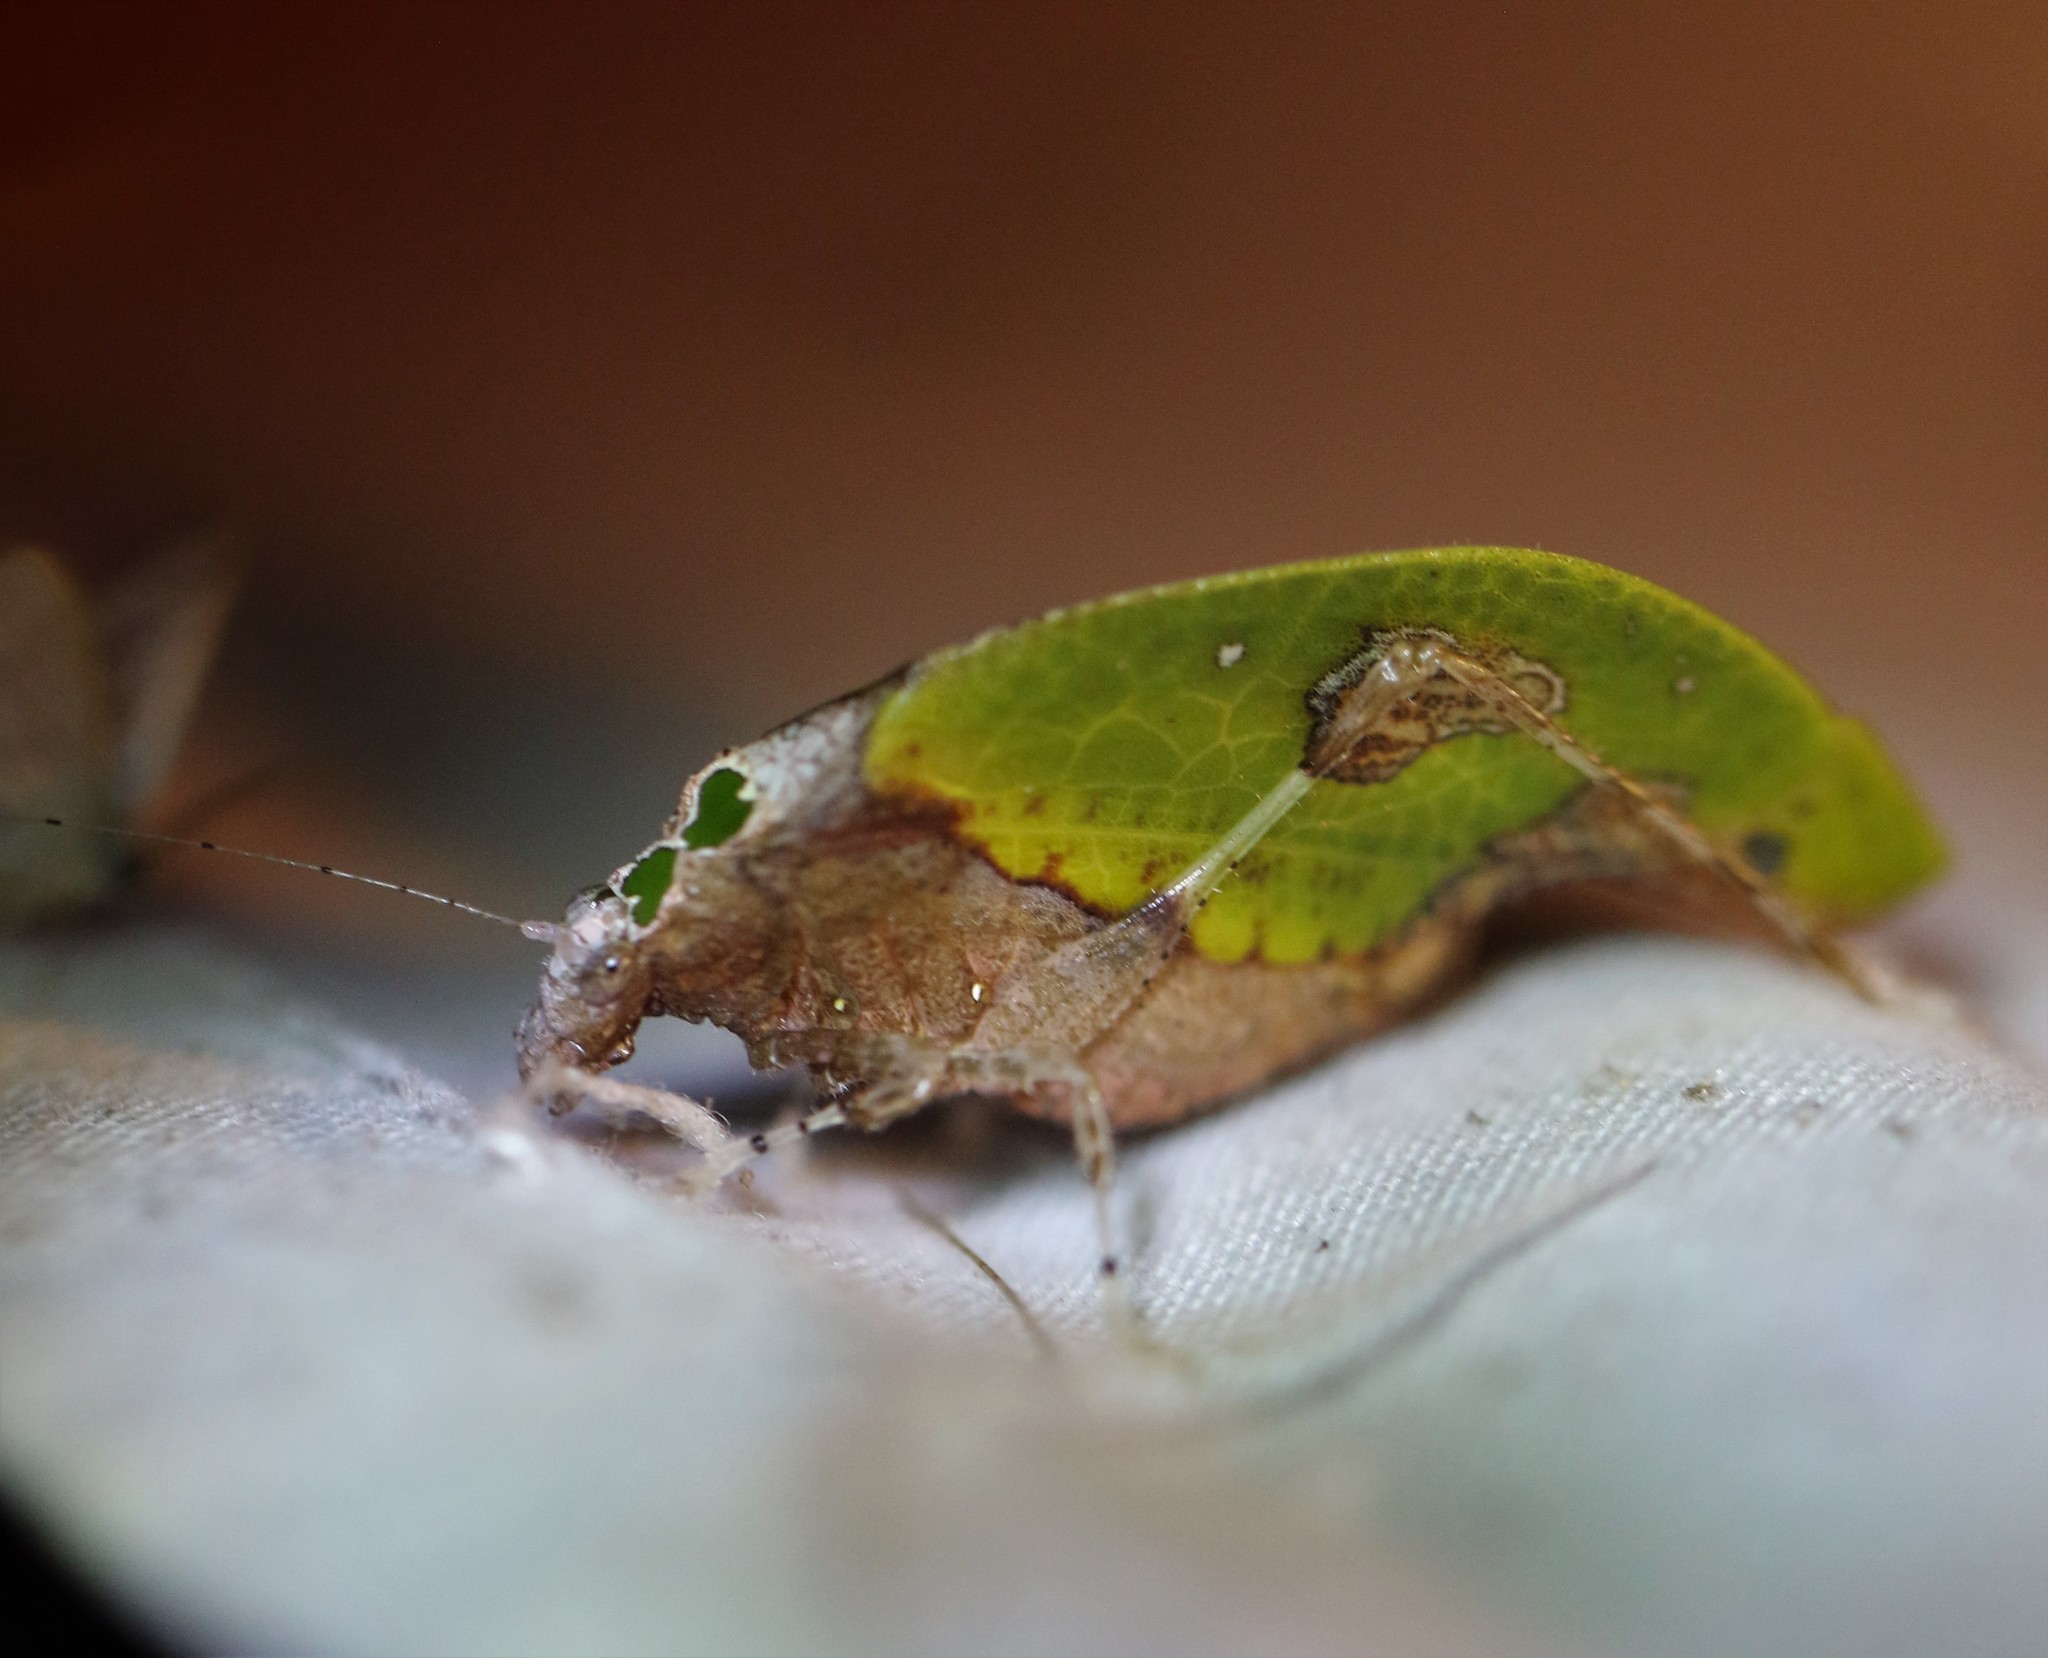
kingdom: Animalia
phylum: Arthropoda
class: Insecta
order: Orthoptera
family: Tettigoniidae
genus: Pycnopalpa
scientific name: Pycnopalpa bicordata
